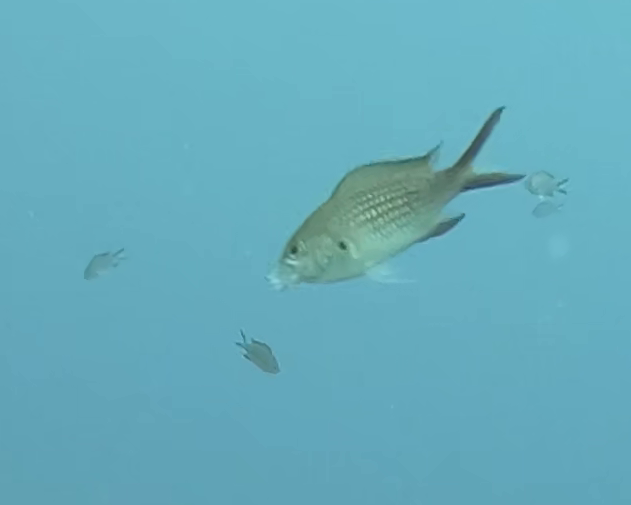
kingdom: Animalia
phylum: Chordata
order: Perciformes
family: Pomacentridae
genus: Chromis
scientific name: Chromis chromis
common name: Damselfish
